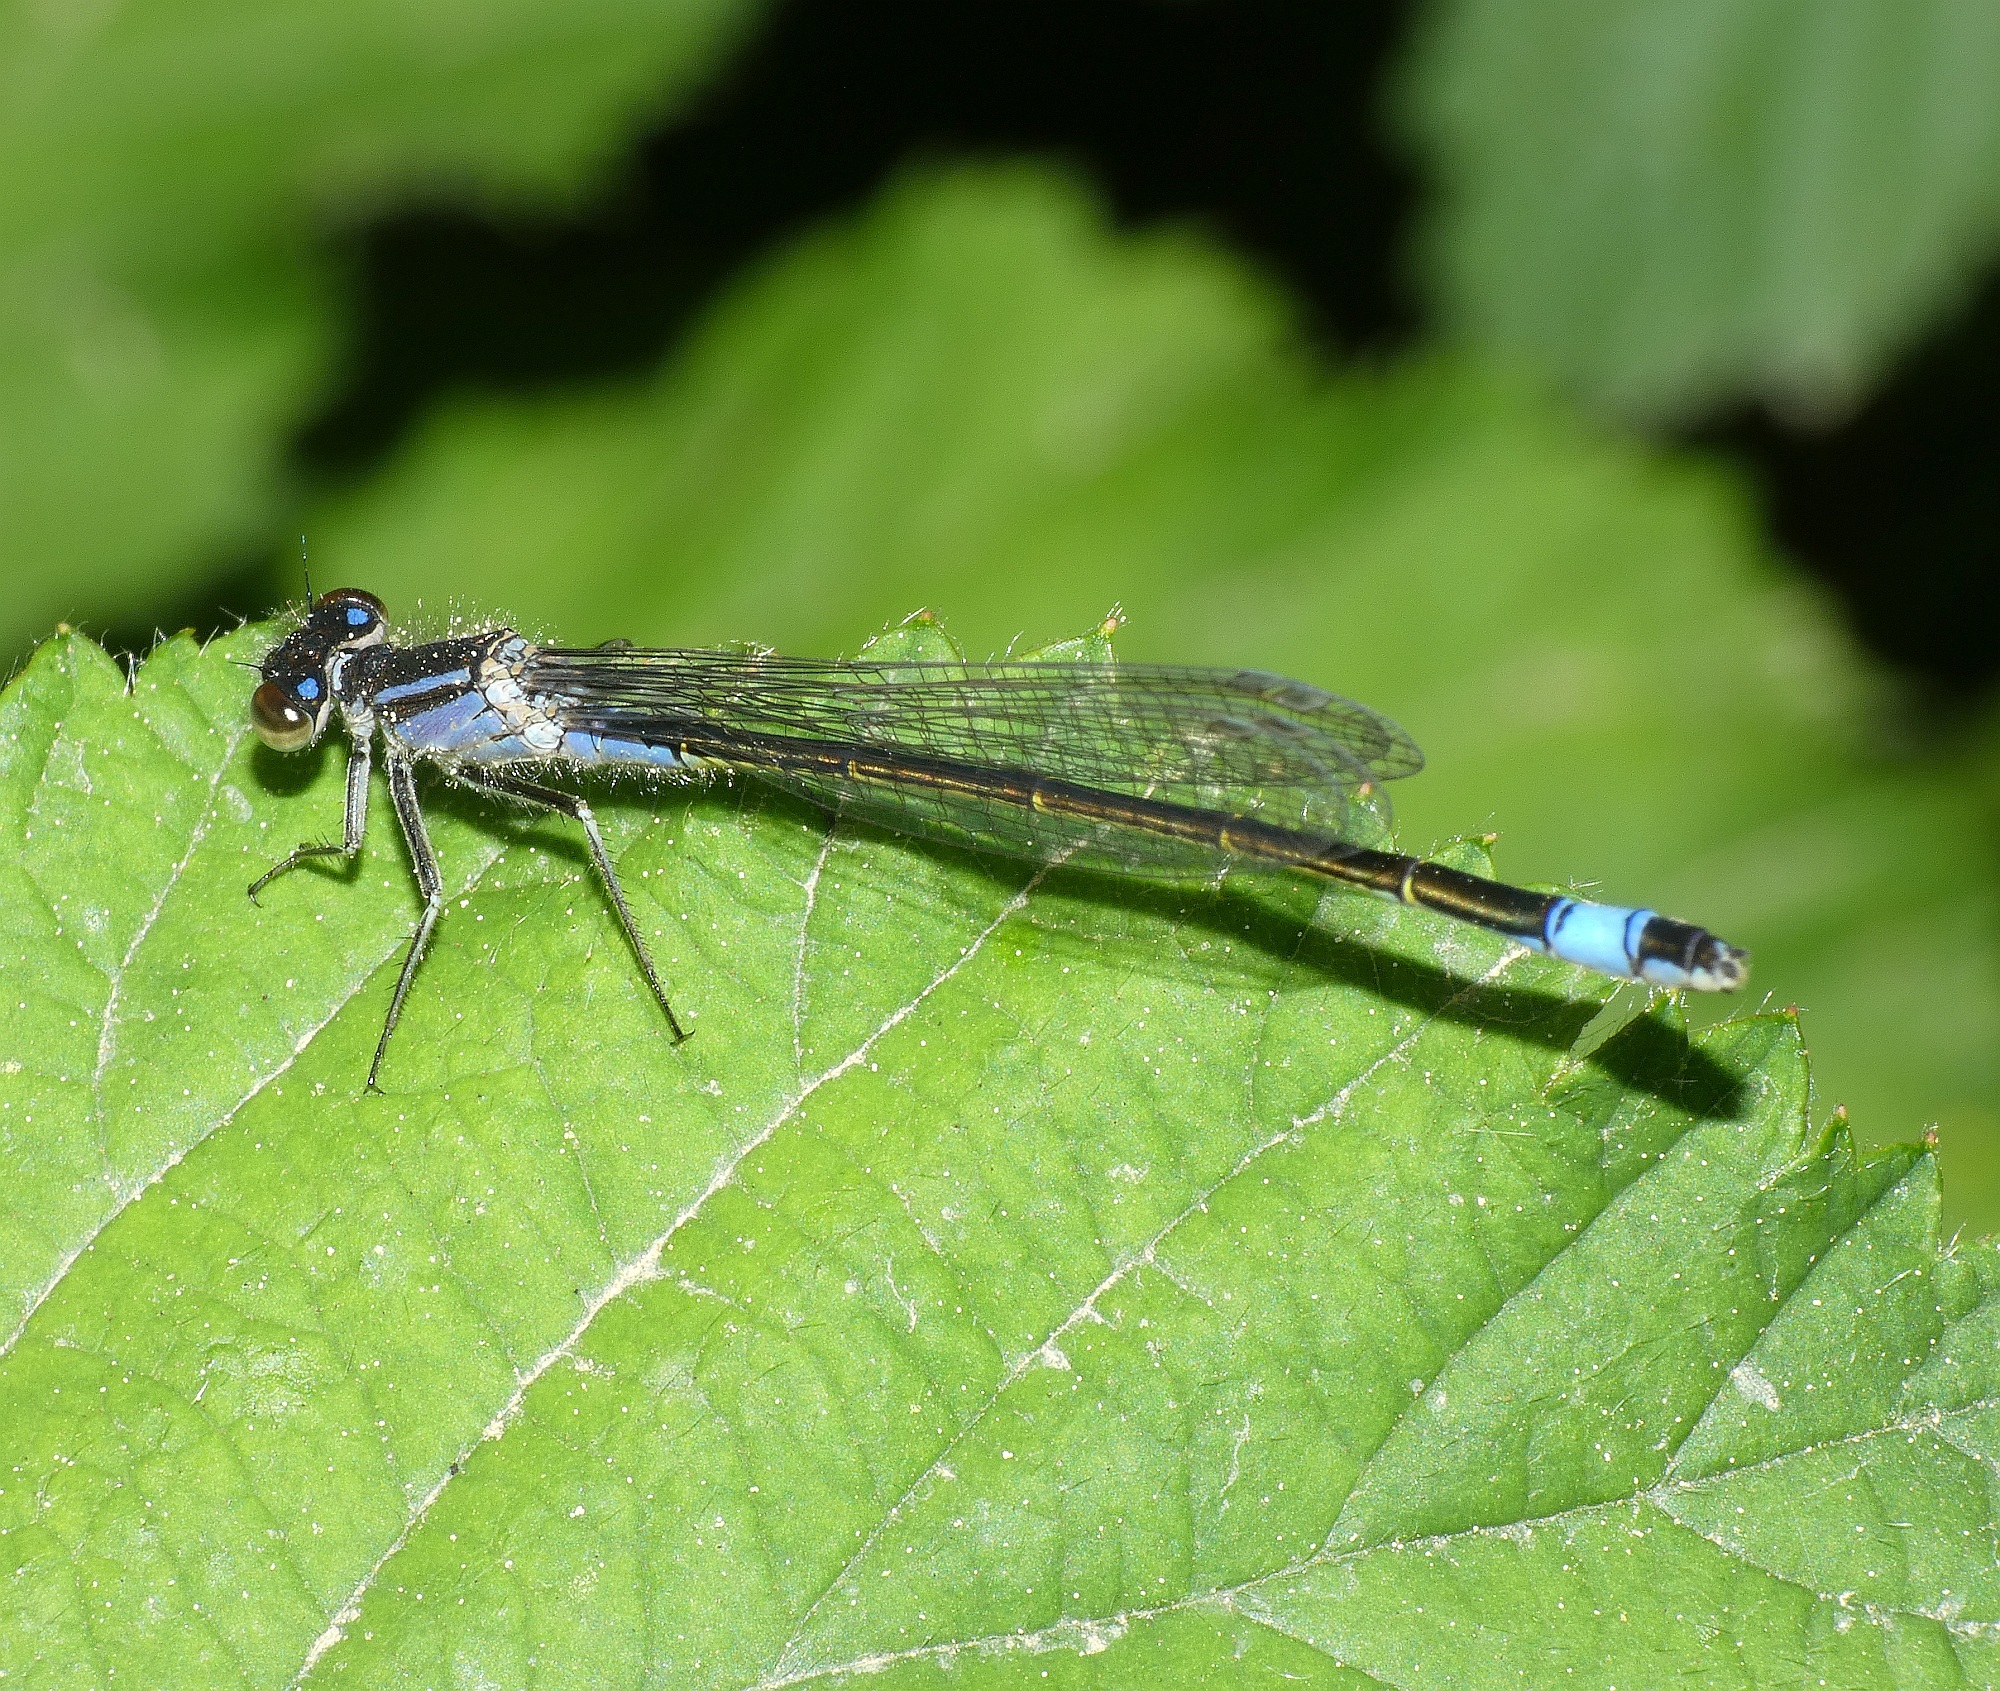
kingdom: Animalia
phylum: Arthropoda
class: Insecta
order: Odonata
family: Coenagrionidae
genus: Ischnura
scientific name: Ischnura elegans
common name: Blue-tailed damselfly
